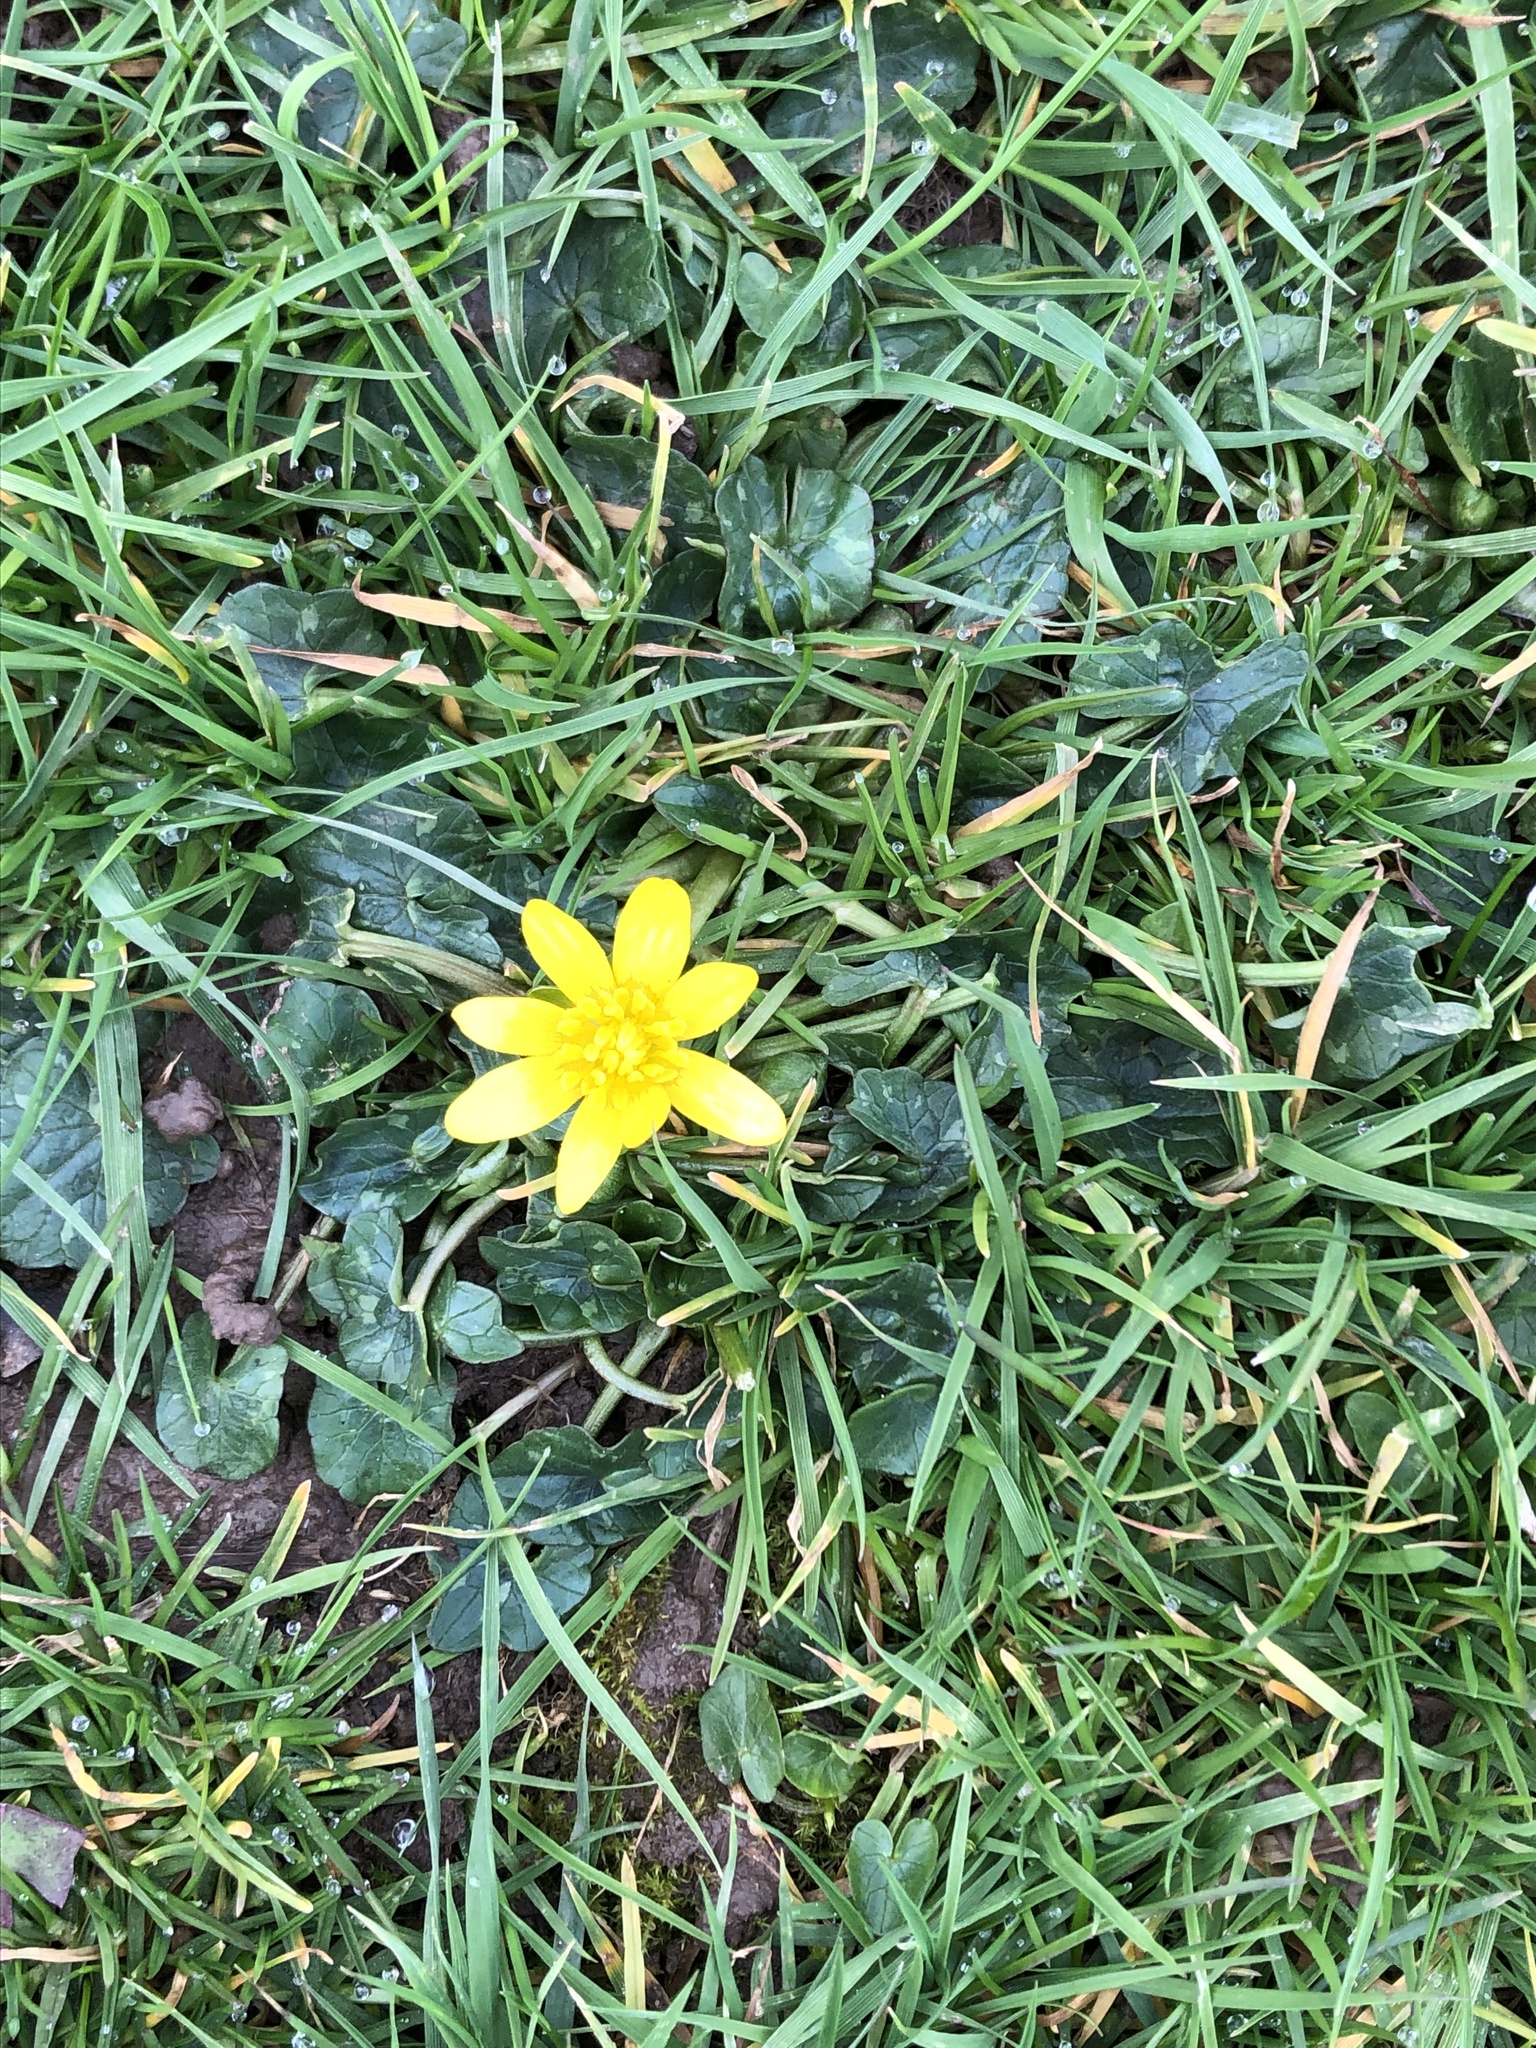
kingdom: Plantae
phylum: Tracheophyta
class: Magnoliopsida
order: Ranunculales
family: Ranunculaceae
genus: Ficaria
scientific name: Ficaria verna
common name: Lesser celandine
